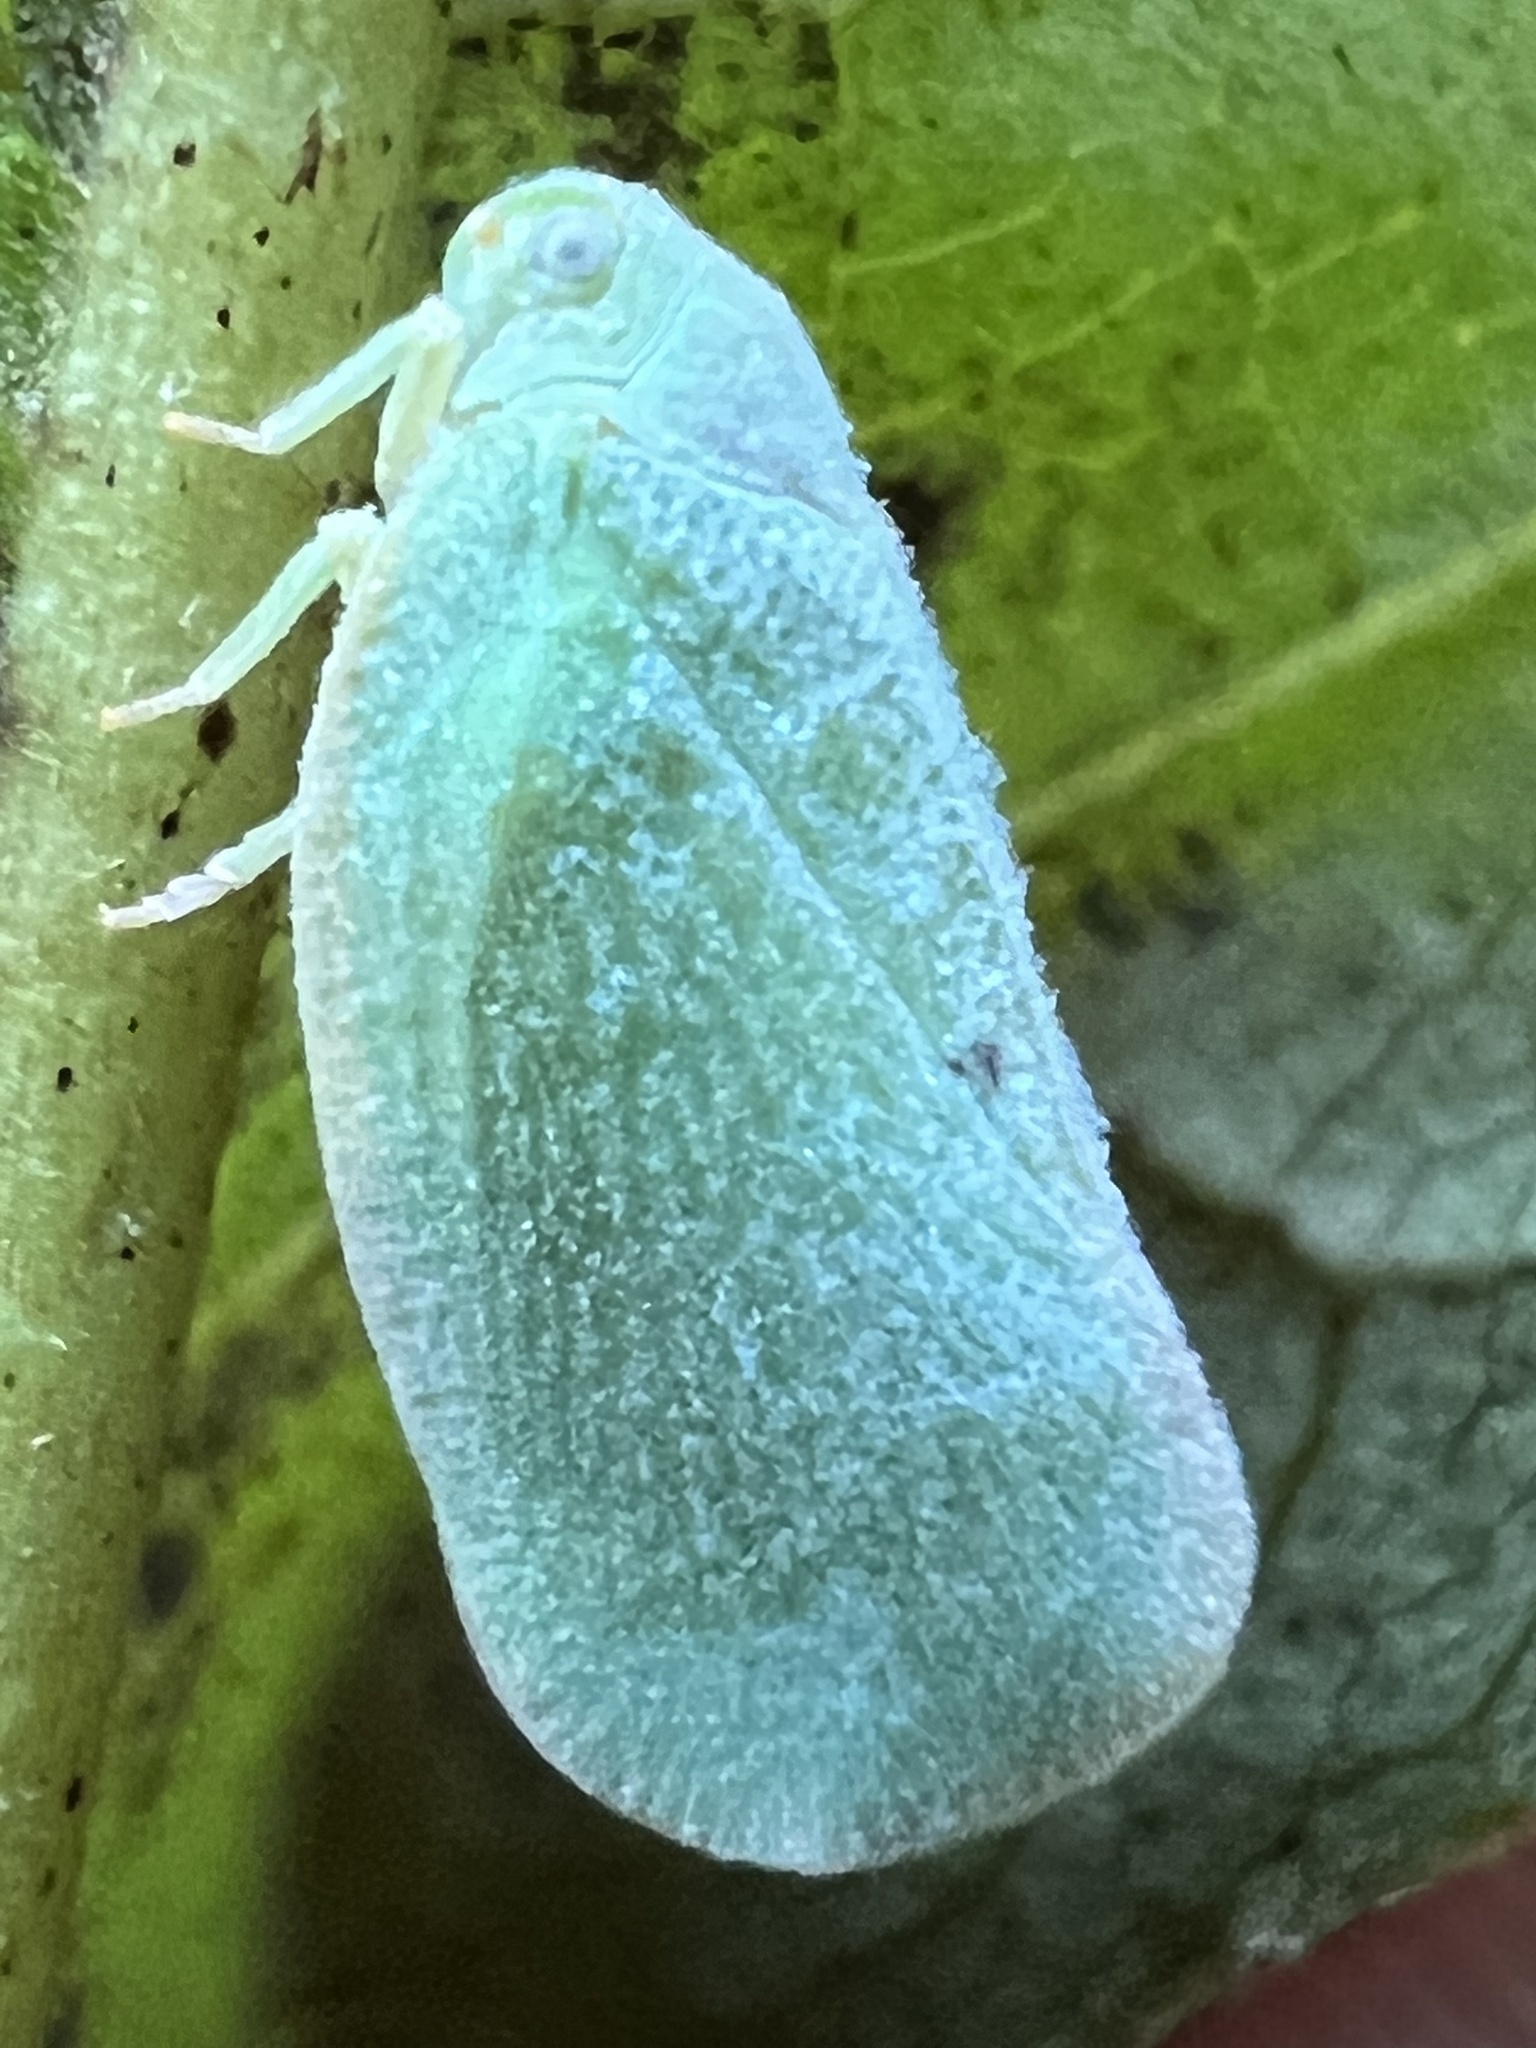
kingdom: Animalia
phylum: Arthropoda
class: Insecta
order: Hemiptera
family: Flatidae
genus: Ormenoides
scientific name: Ormenoides venusta
